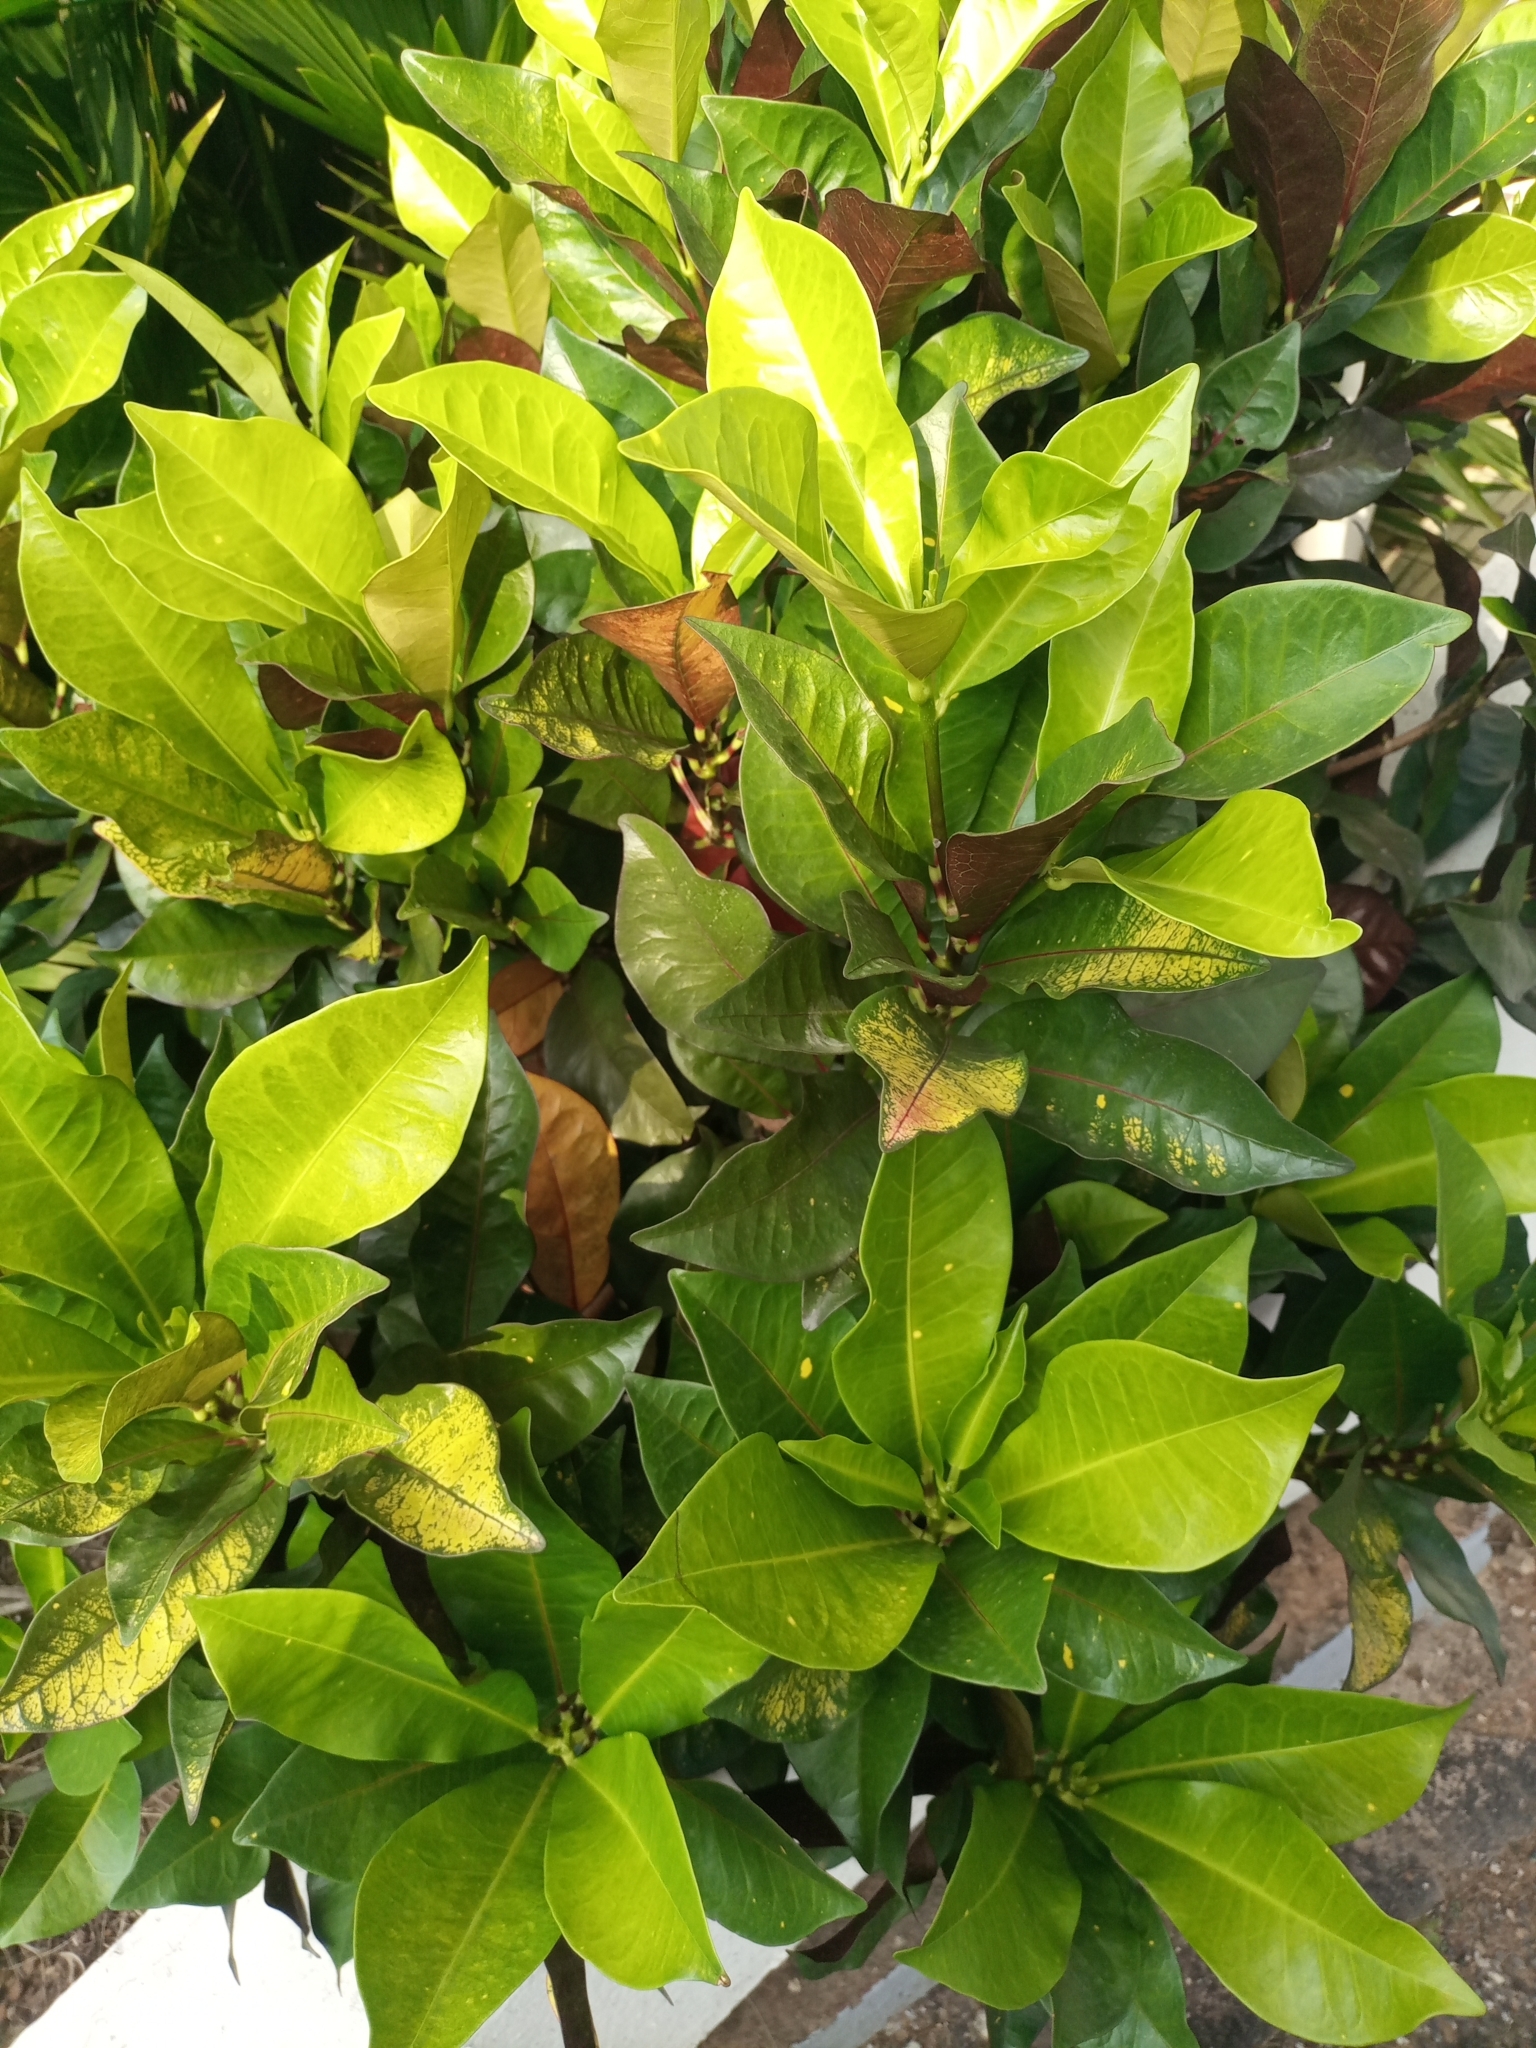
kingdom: Plantae
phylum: Tracheophyta
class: Magnoliopsida
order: Malpighiales
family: Euphorbiaceae
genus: Codiaeum
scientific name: Codiaeum variegatum
